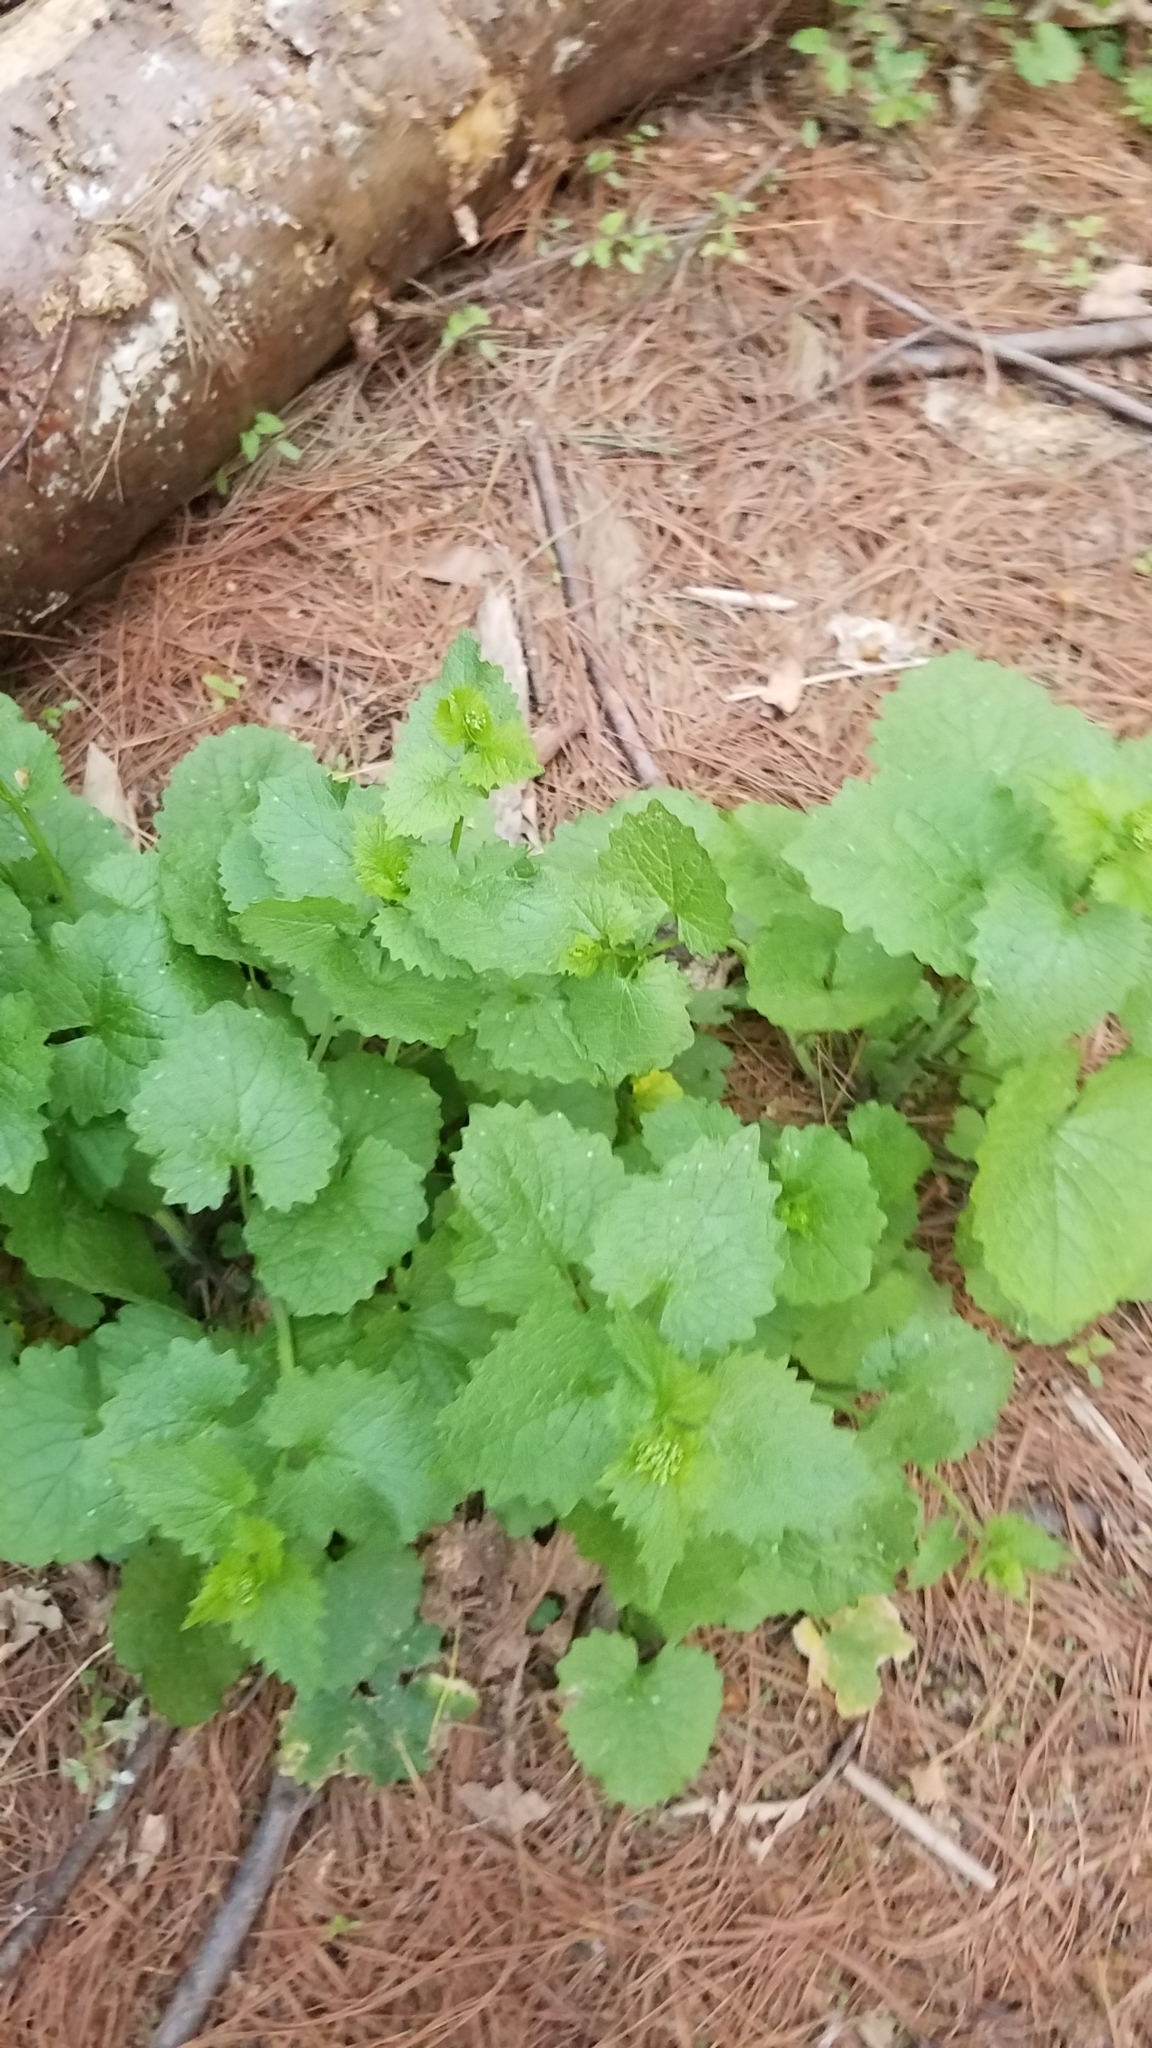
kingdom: Plantae
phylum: Tracheophyta
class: Magnoliopsida
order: Brassicales
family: Brassicaceae
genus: Alliaria
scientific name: Alliaria petiolata
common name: Garlic mustard
